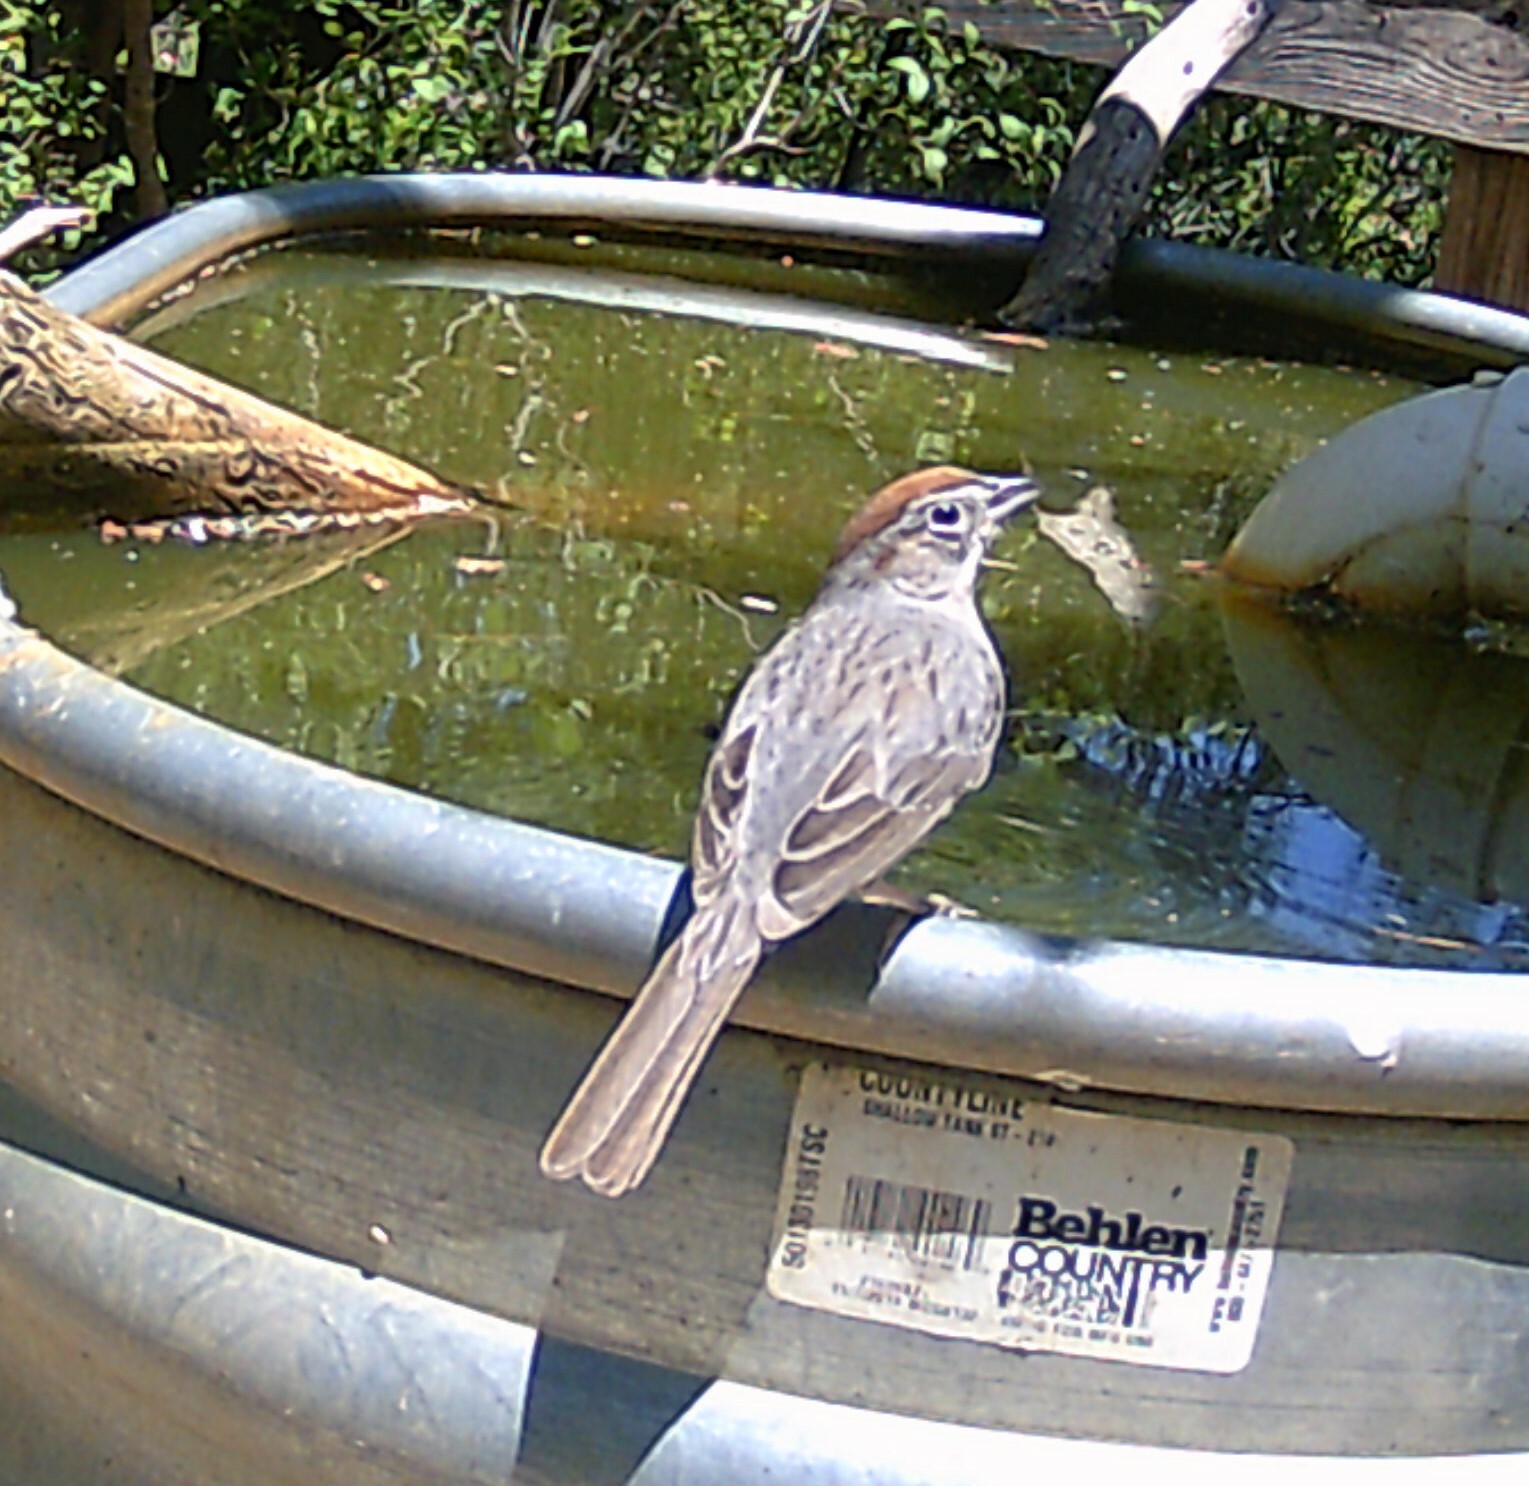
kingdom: Animalia
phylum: Chordata
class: Aves
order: Passeriformes
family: Passerellidae
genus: Aimophila
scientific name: Aimophila ruficeps
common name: Rufous-crowned sparrow
